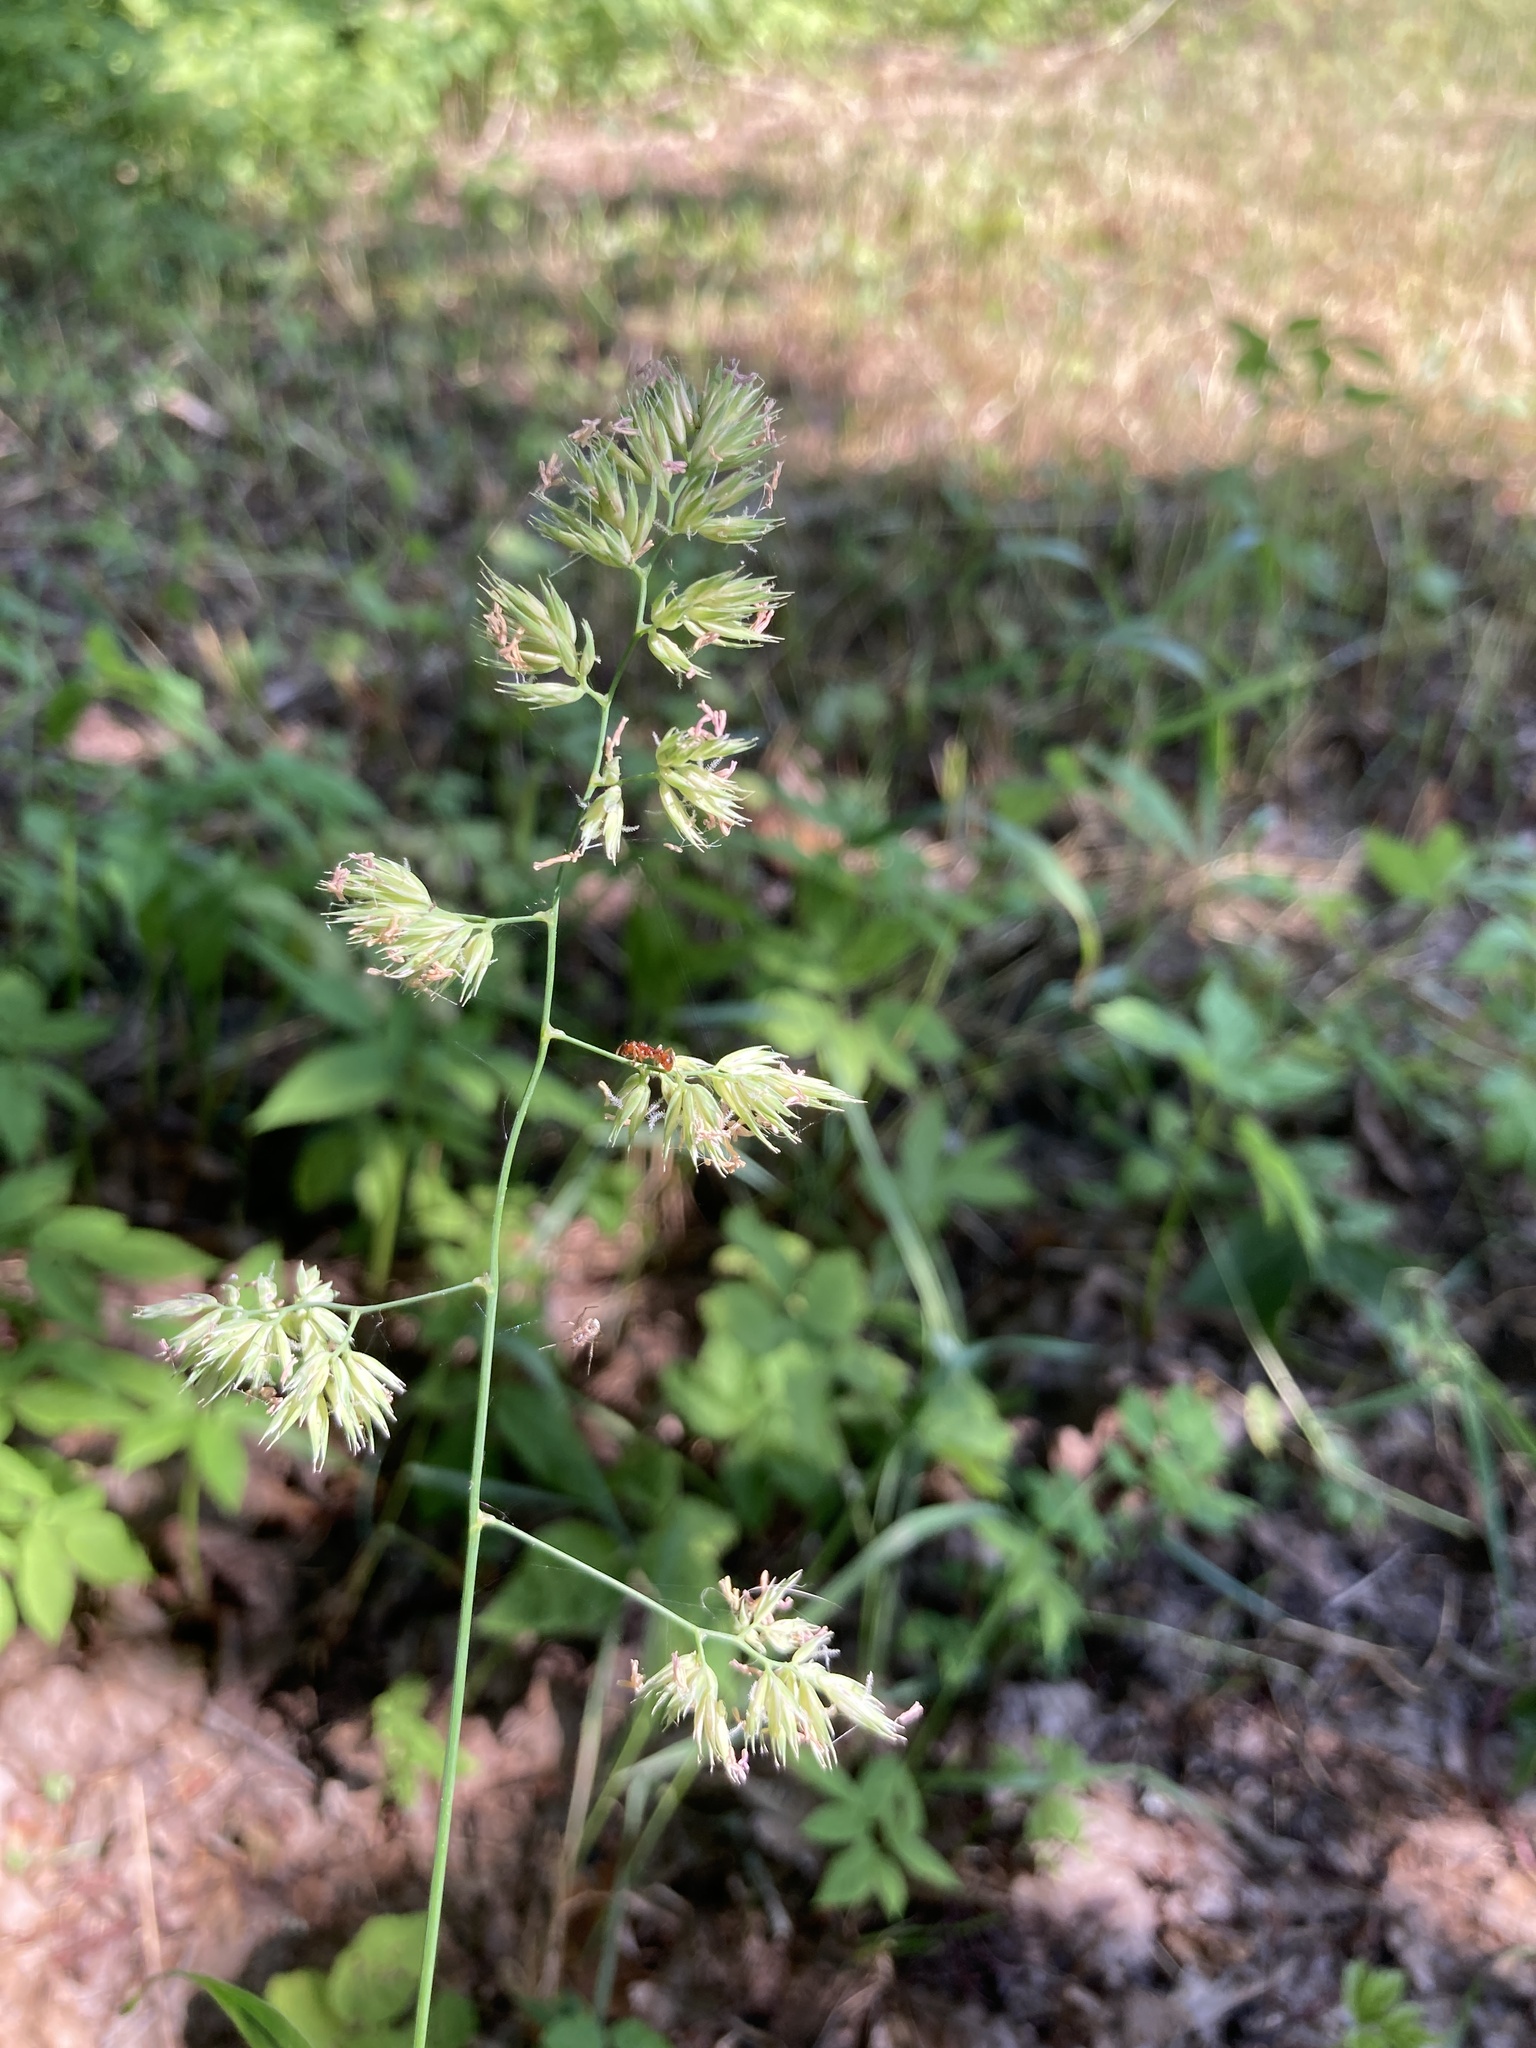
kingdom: Plantae
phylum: Tracheophyta
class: Liliopsida
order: Poales
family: Poaceae
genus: Dactylis
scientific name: Dactylis glomerata
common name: Orchardgrass
